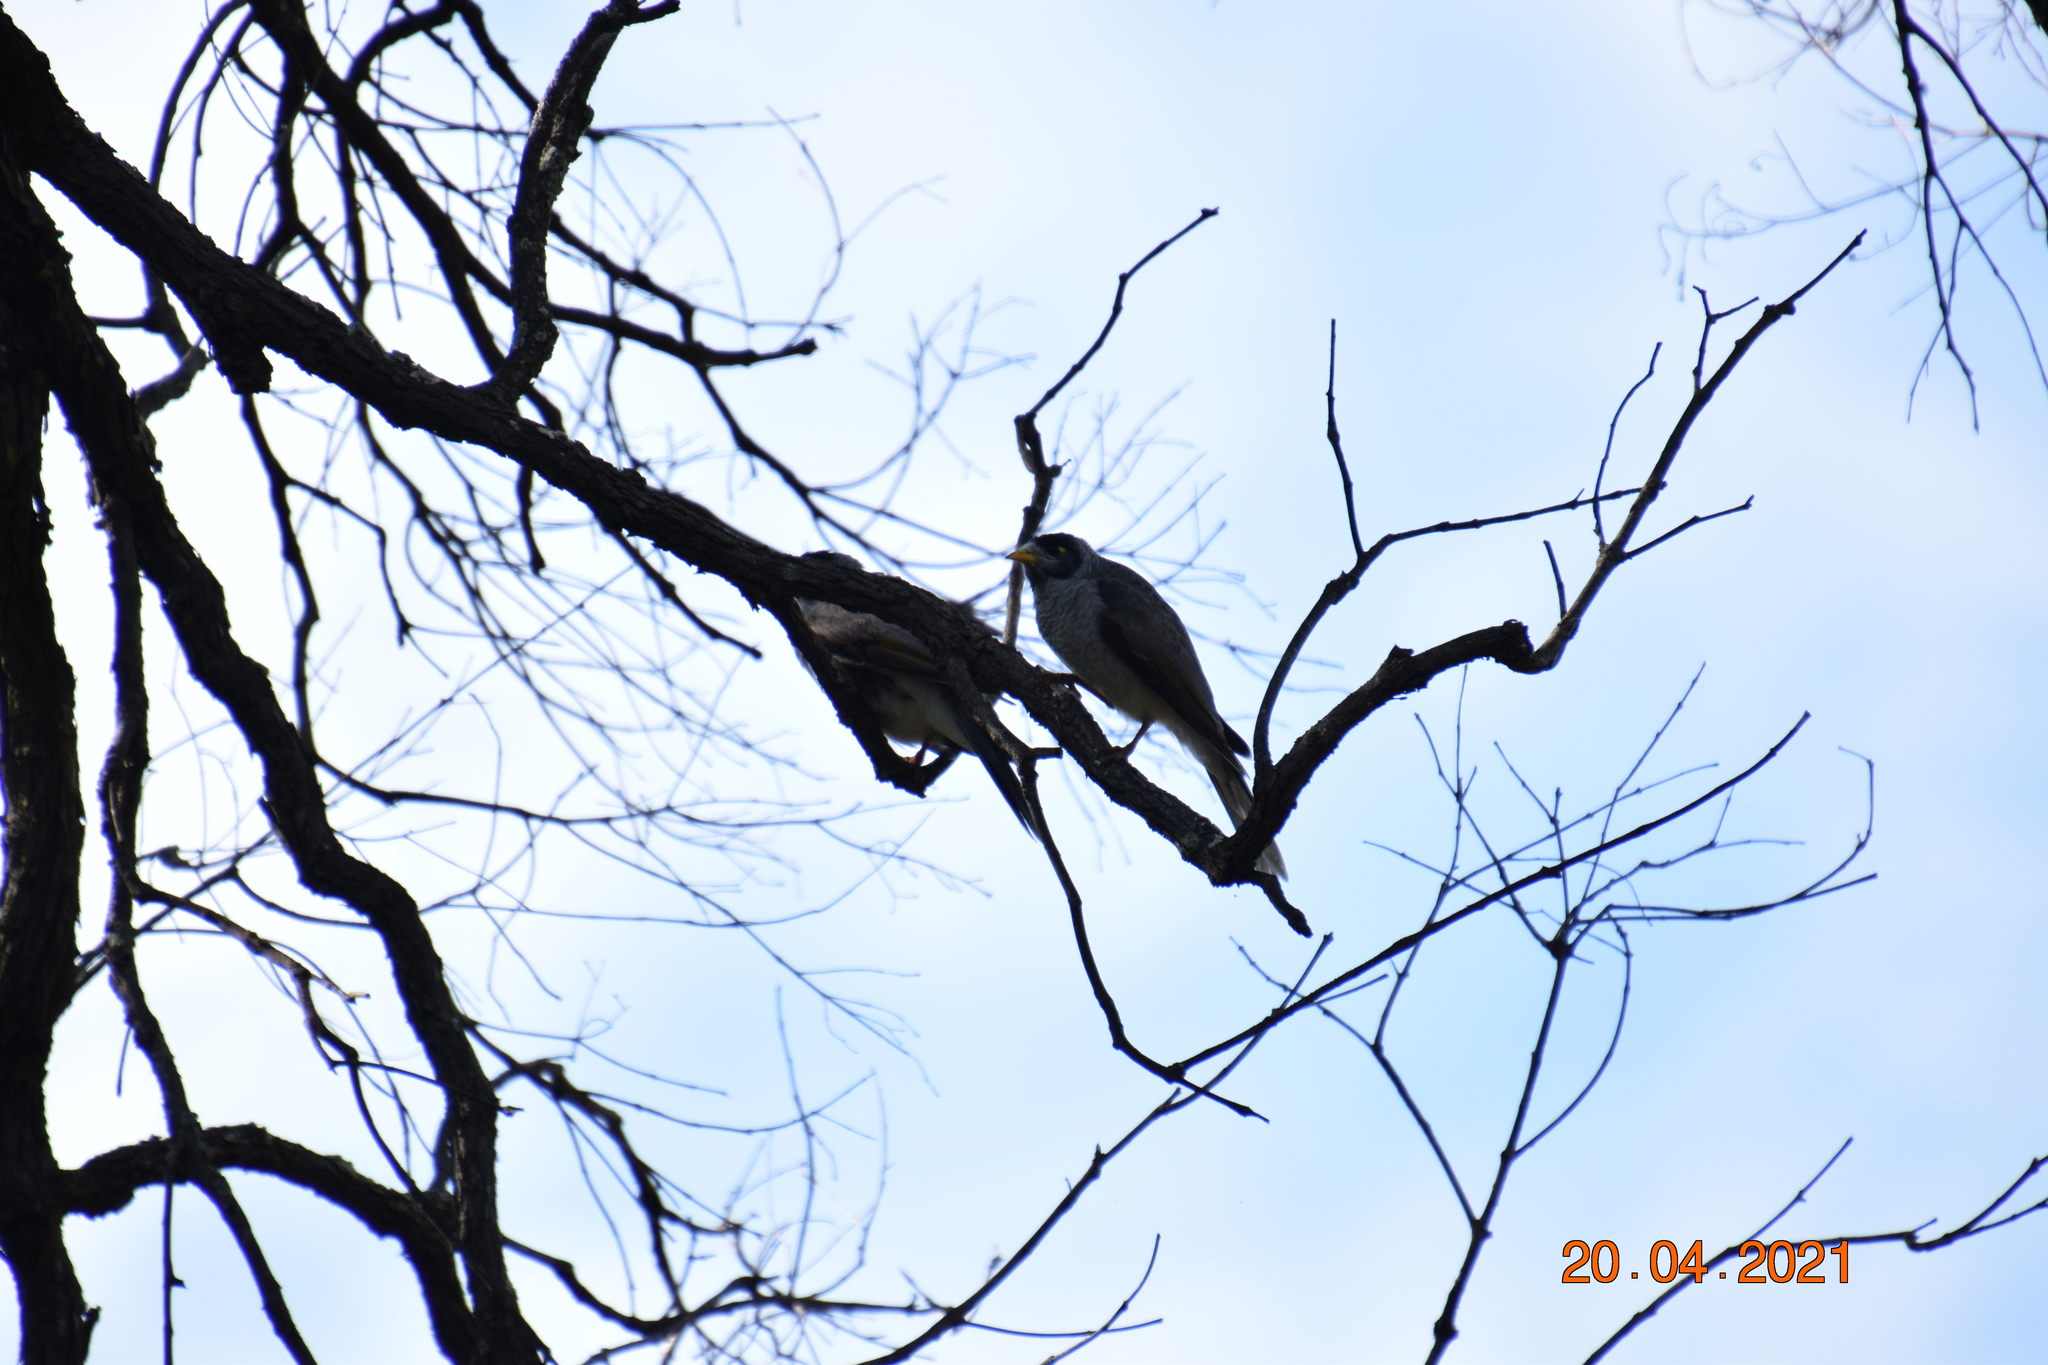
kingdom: Animalia
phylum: Chordata
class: Aves
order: Passeriformes
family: Meliphagidae
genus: Manorina
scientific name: Manorina melanocephala
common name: Noisy miner
